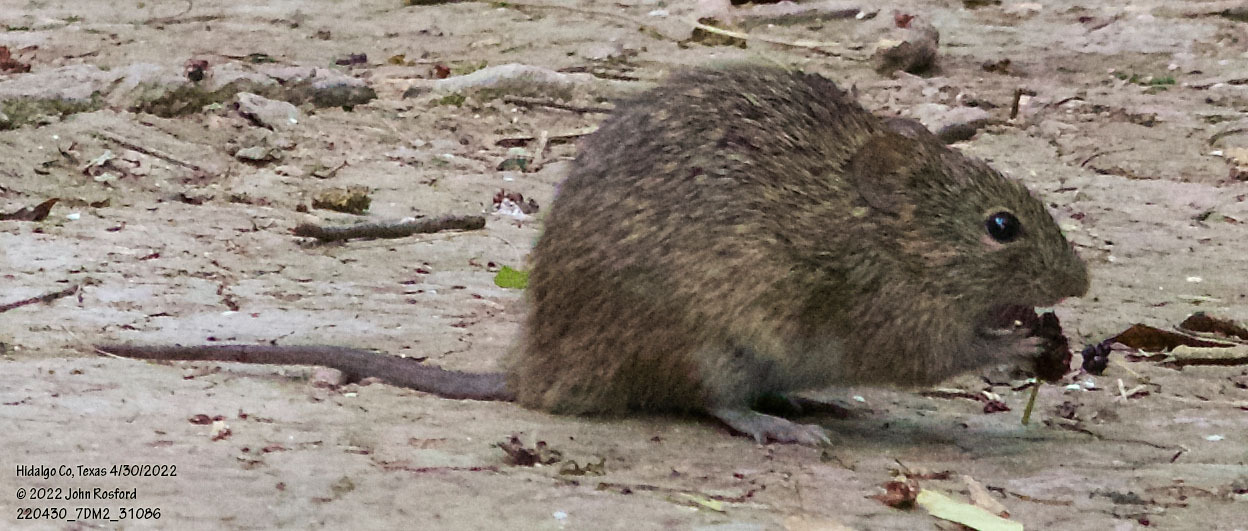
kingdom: Animalia
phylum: Chordata
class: Mammalia
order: Rodentia
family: Cricetidae
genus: Sigmodon
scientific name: Sigmodon hispidus
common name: Hispid cotton rat
